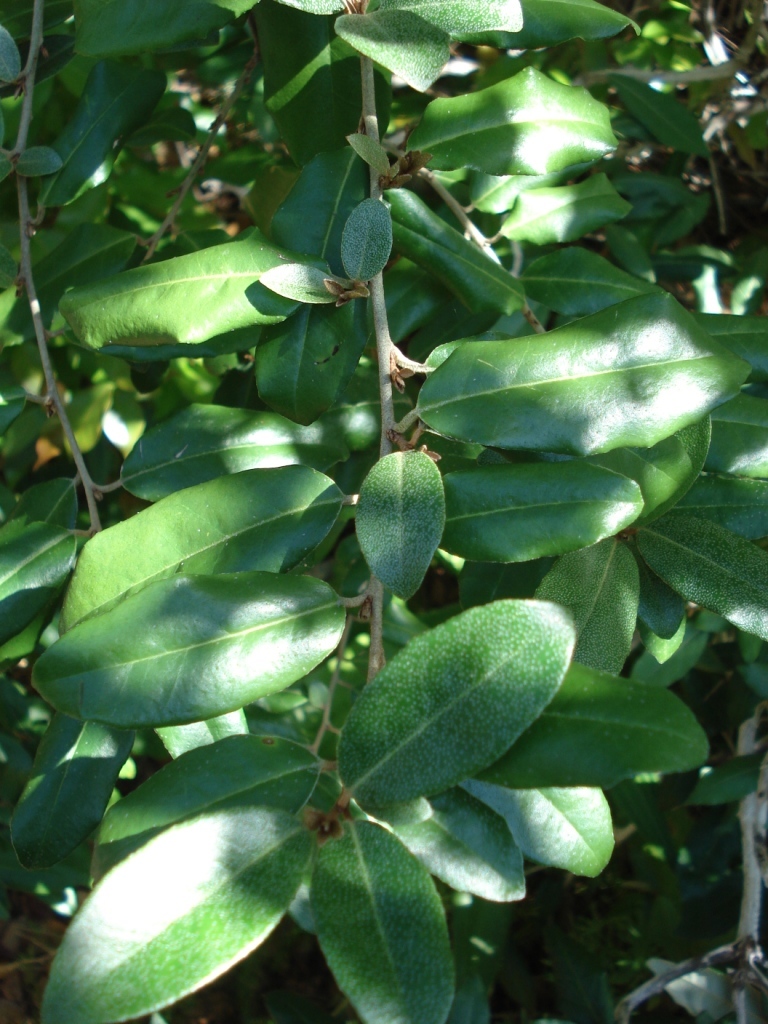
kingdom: Plantae
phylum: Tracheophyta
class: Magnoliopsida
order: Rosales
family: Elaeagnaceae
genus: Elaeagnus
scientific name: Elaeagnus pungens
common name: Spiny oleaster
